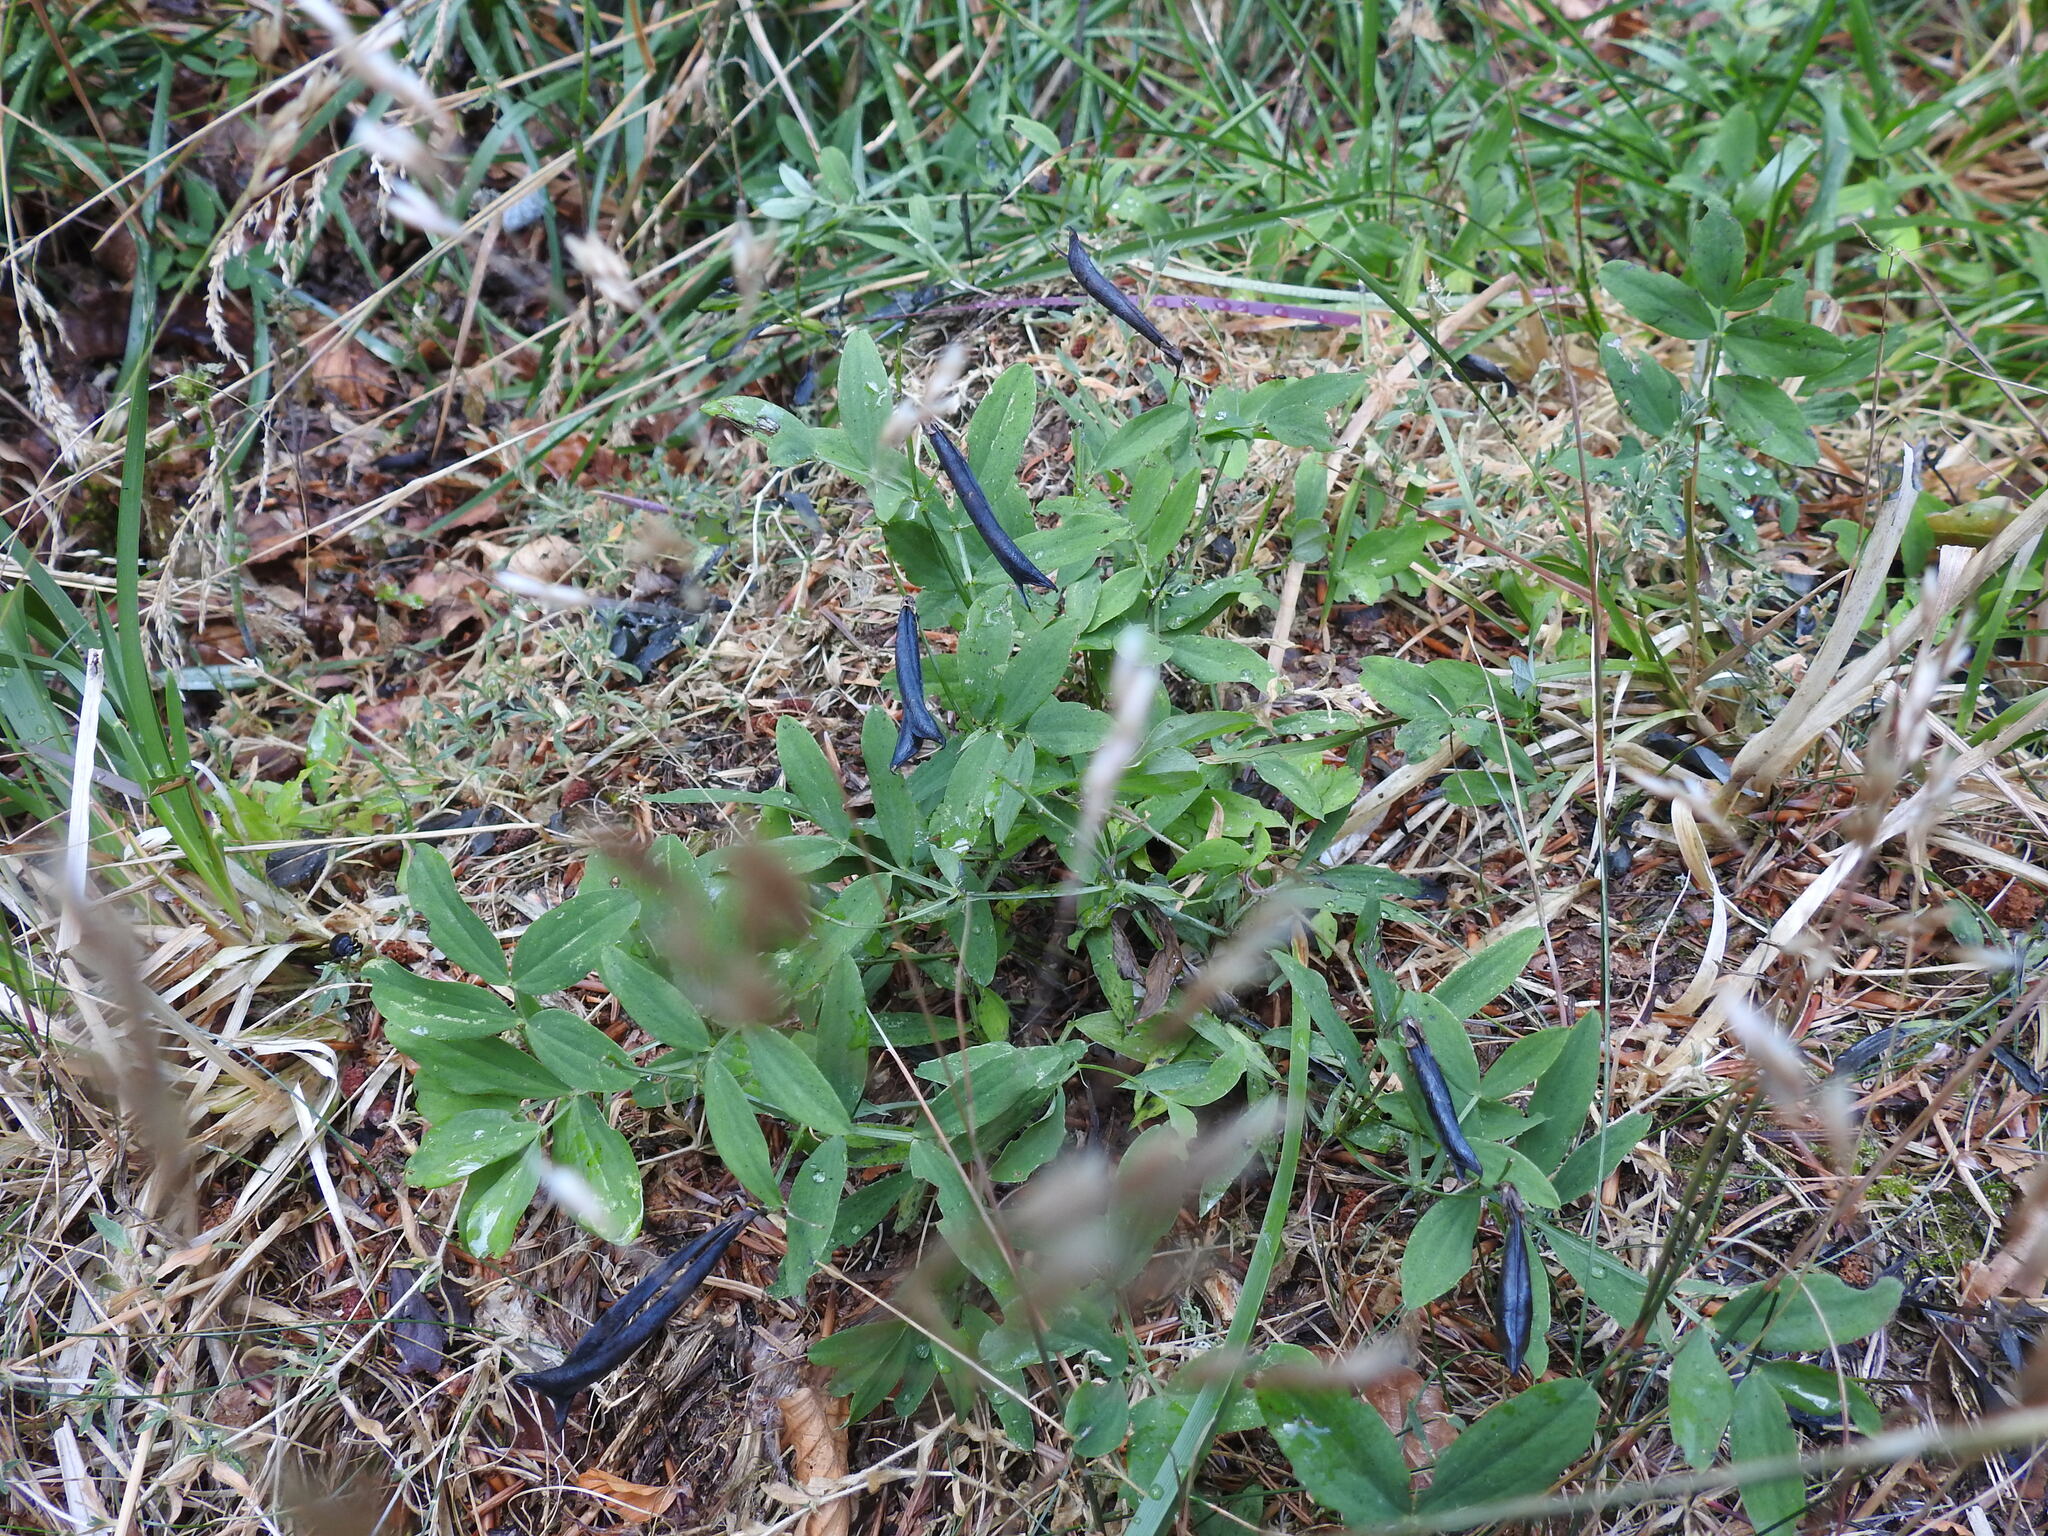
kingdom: Plantae
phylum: Tracheophyta
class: Magnoliopsida
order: Fabales
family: Fabaceae
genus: Lathyrus
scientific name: Lathyrus linifolius
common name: Bitter-vetch
